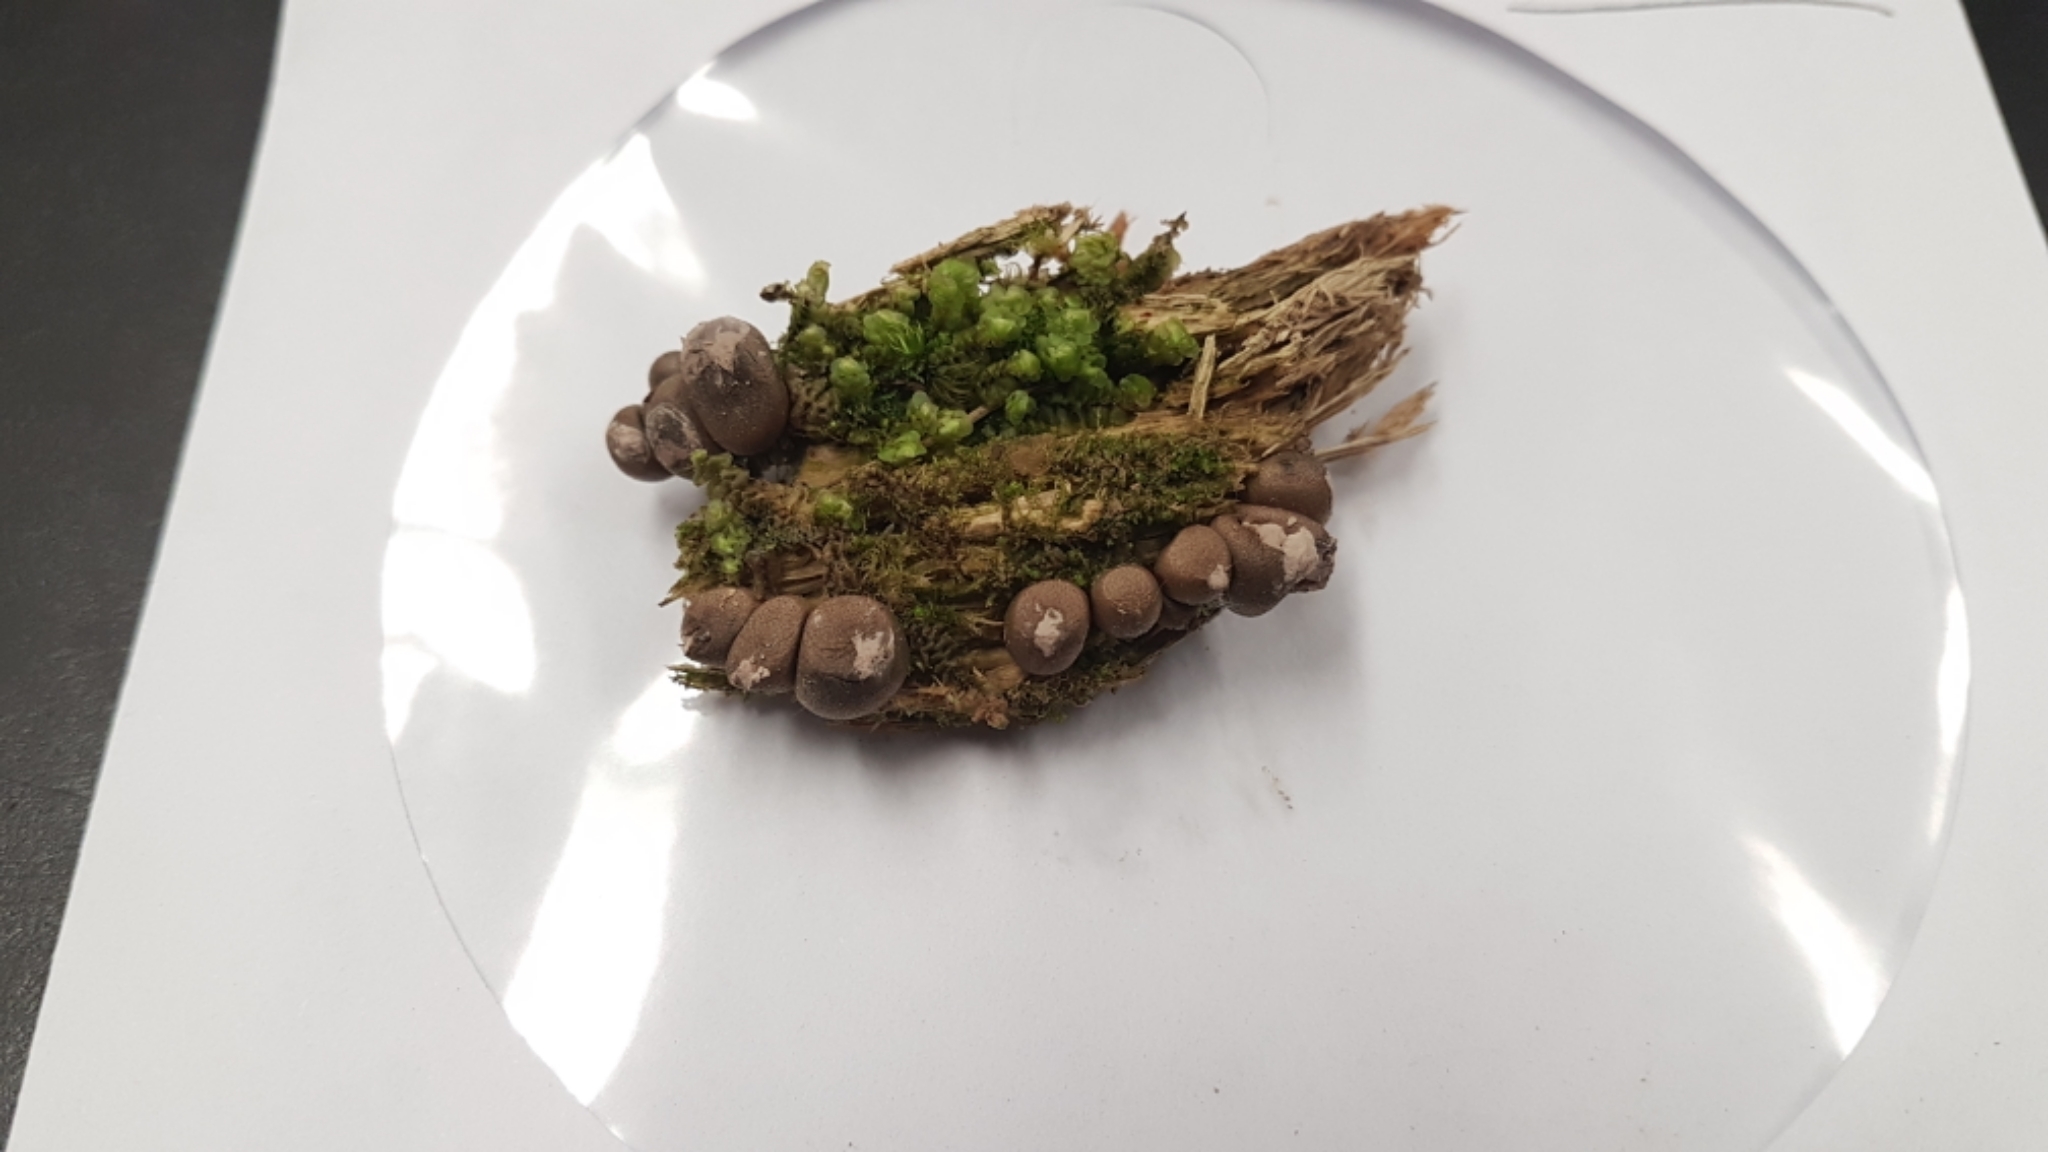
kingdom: Protozoa
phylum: Mycetozoa
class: Myxomycetes
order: Cribrariales
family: Tubiferaceae
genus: Lycogala
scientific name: Lycogala epidendrum
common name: Wolf's milk
